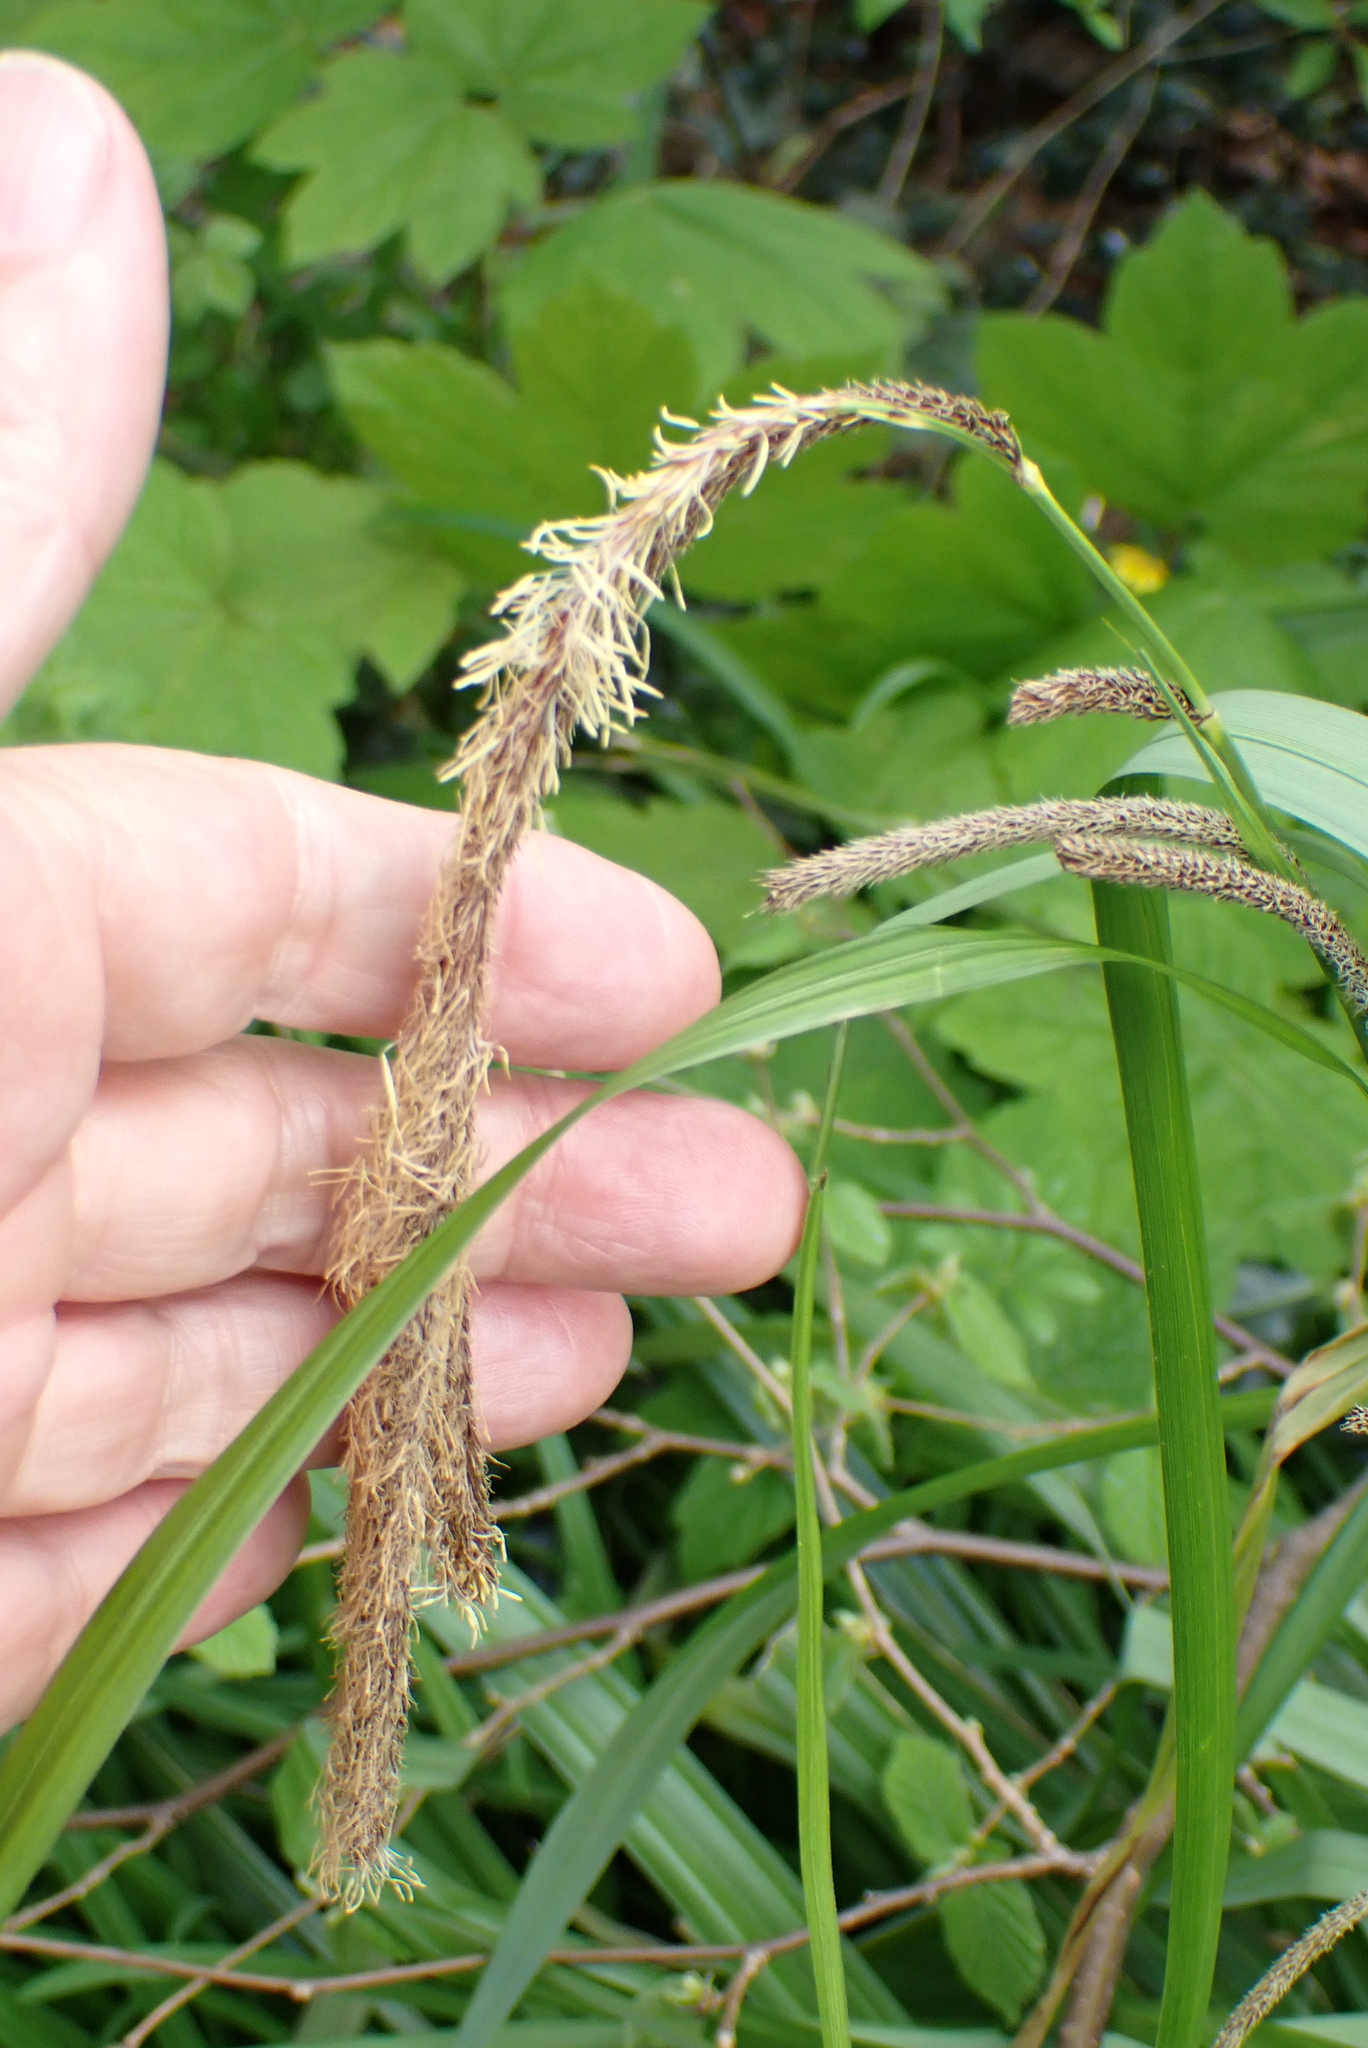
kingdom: Plantae
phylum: Tracheophyta
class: Liliopsida
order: Poales
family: Cyperaceae
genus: Carex
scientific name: Carex pendula
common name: Pendulous sedge
